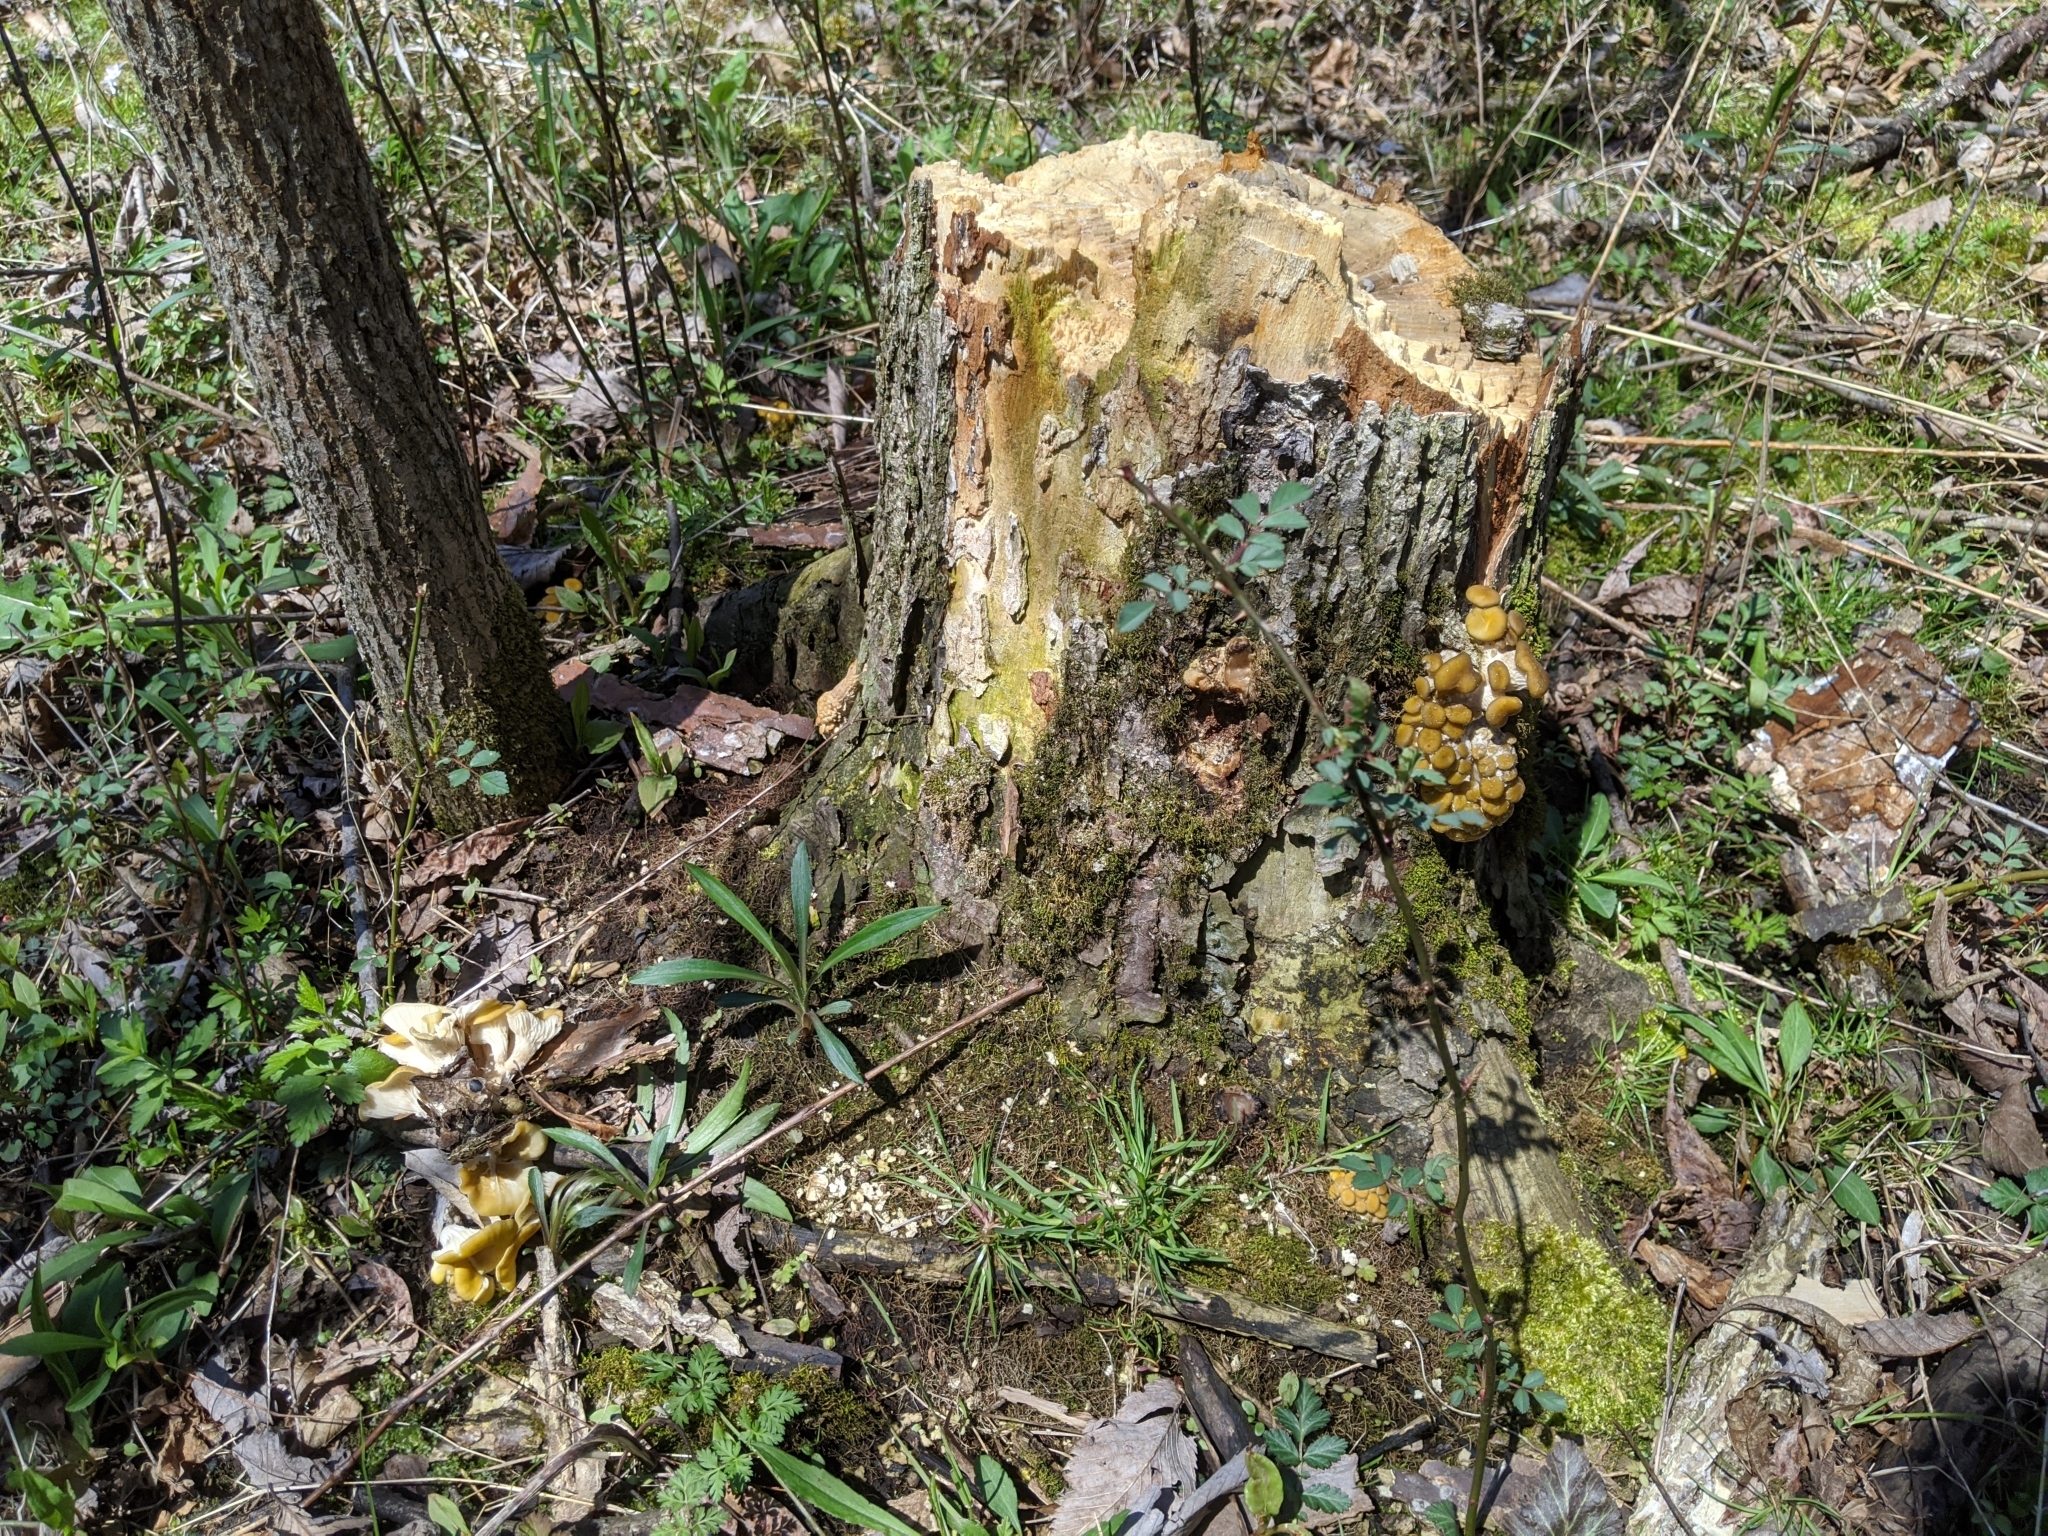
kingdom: Fungi
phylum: Basidiomycota
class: Agaricomycetes
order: Agaricales
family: Pleurotaceae
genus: Pleurotus
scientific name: Pleurotus citrinopileatus
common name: Golden oyster mushroom
